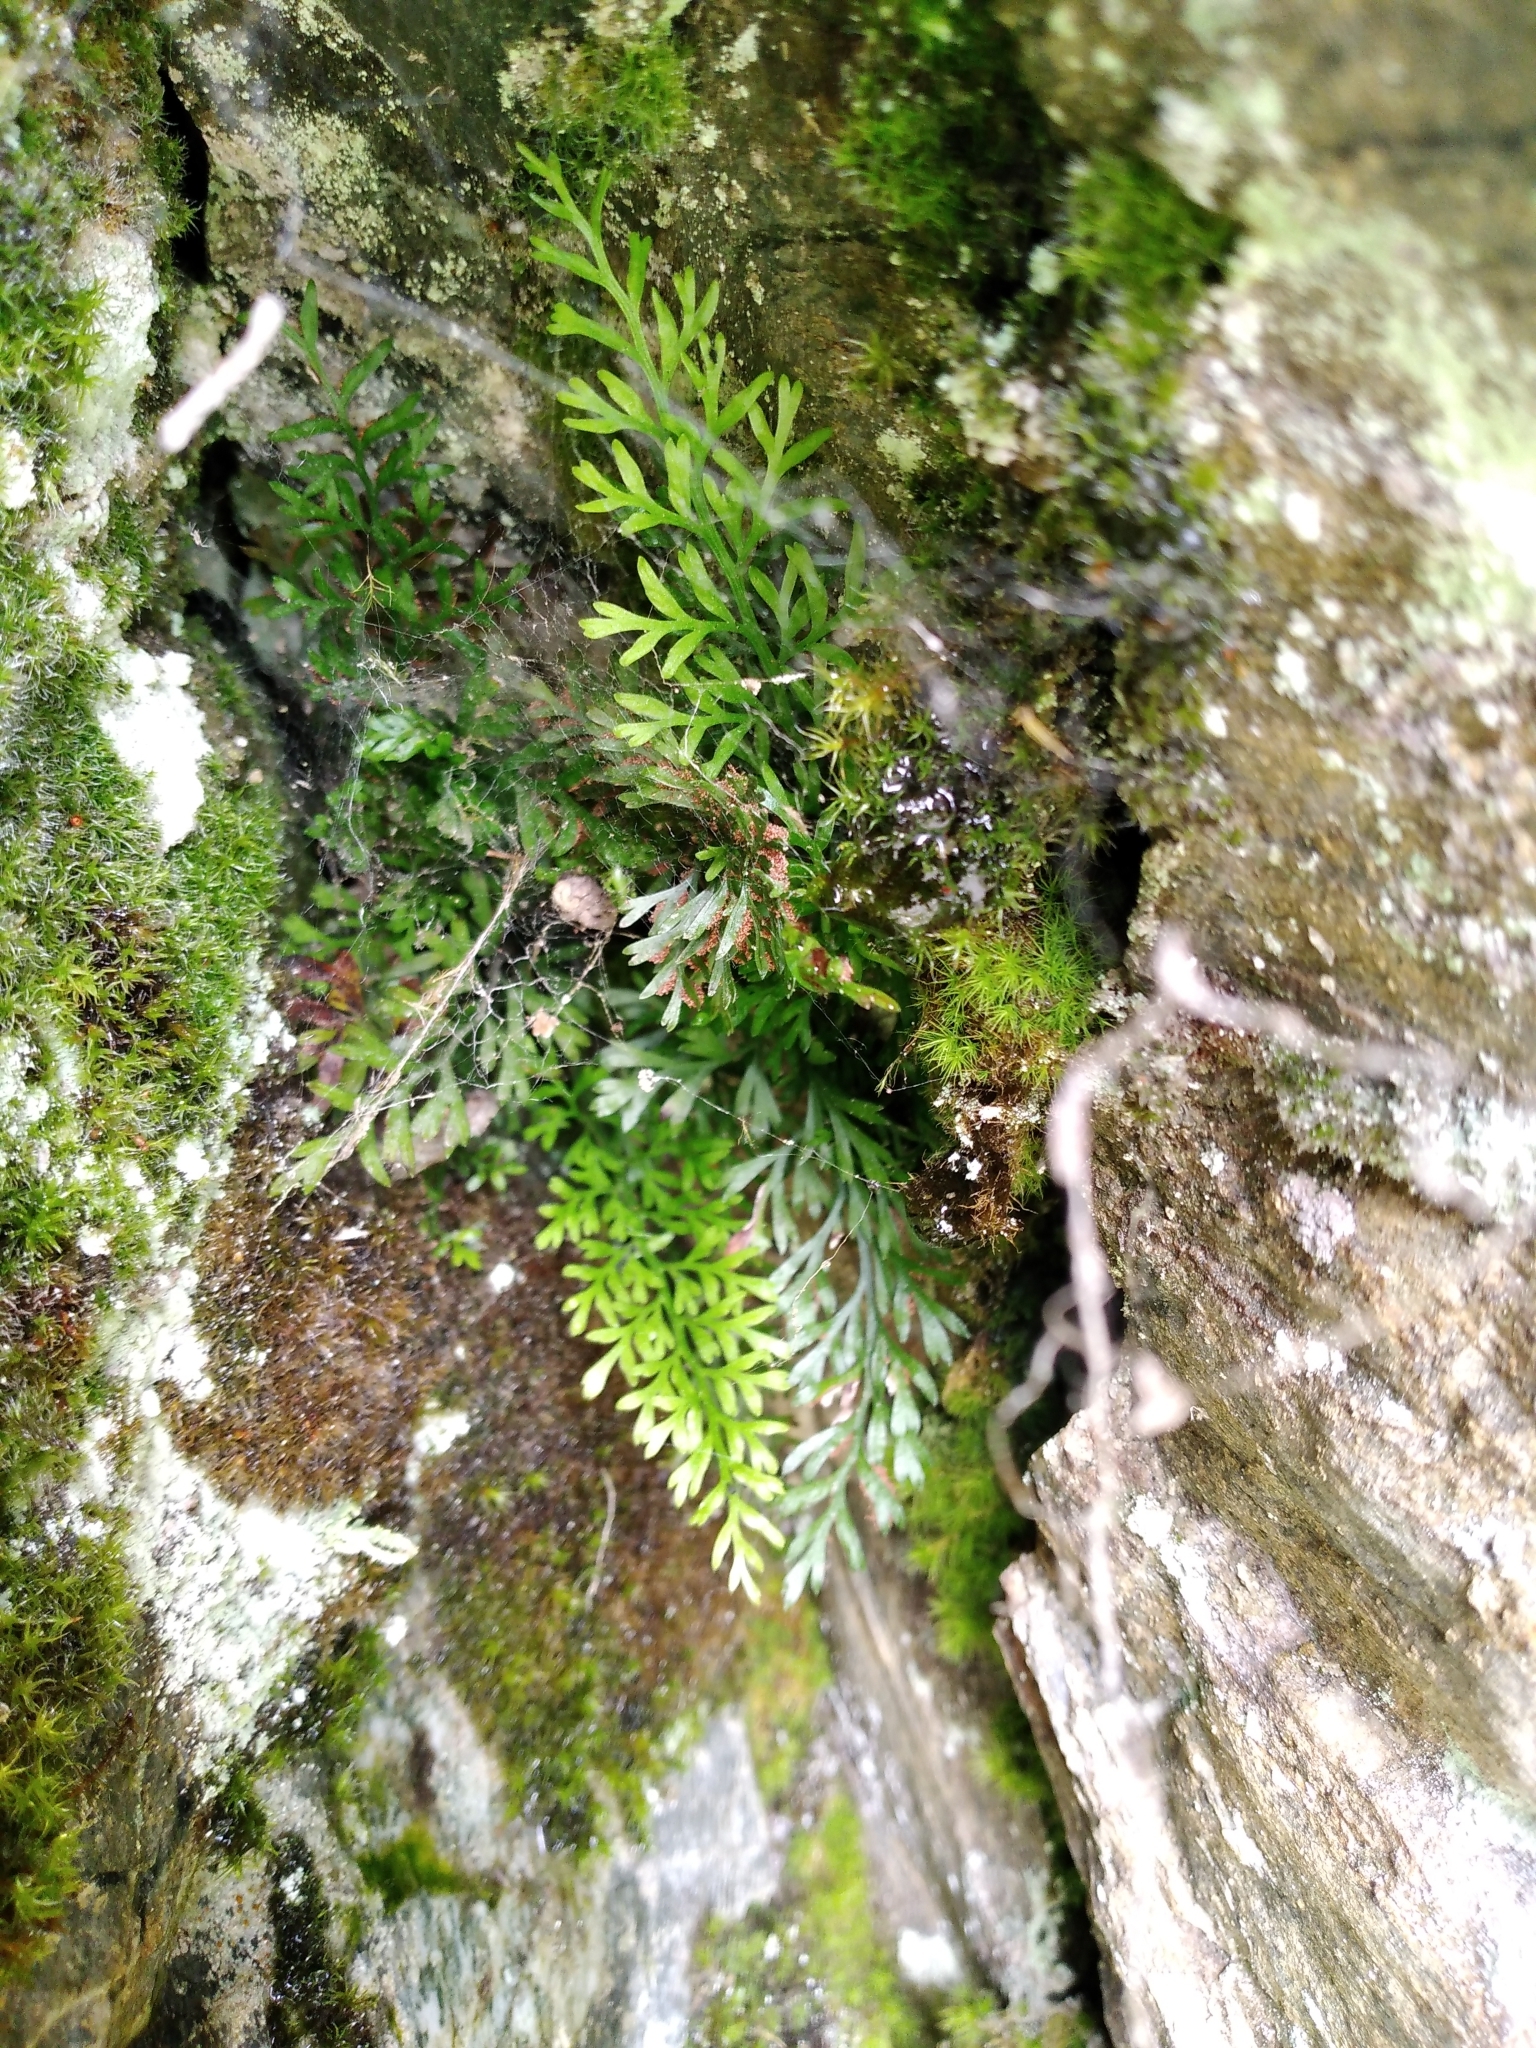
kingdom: Plantae
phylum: Tracheophyta
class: Polypodiopsida
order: Polypodiales
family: Aspleniaceae
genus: Asplenium
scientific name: Asplenium richardii
